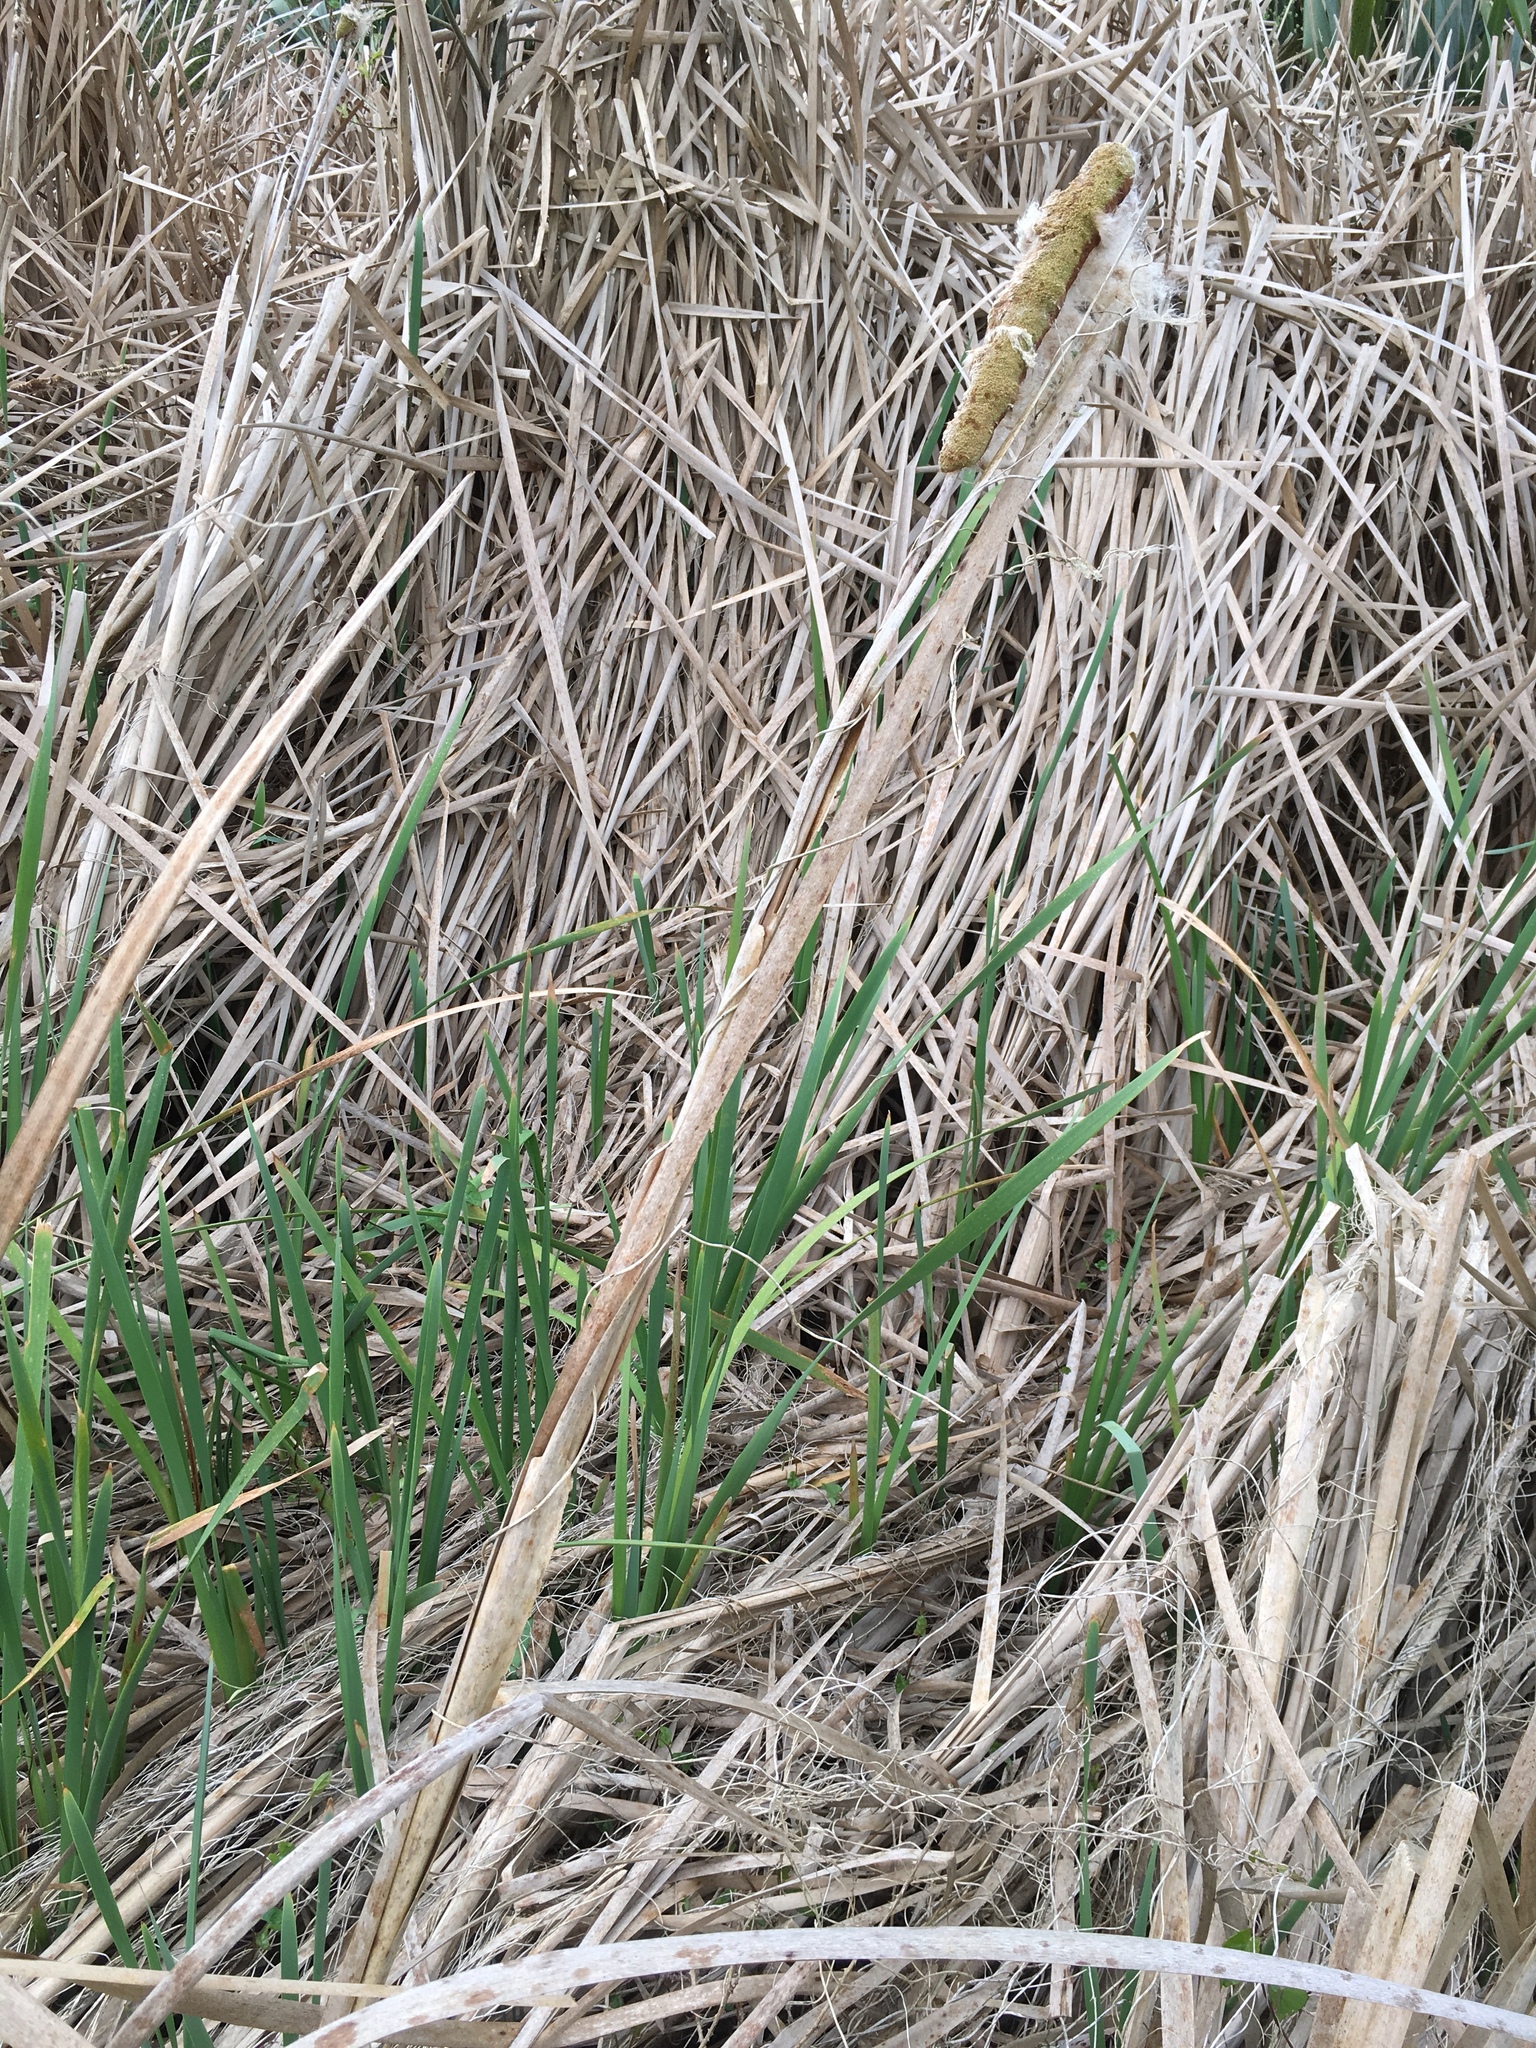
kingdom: Plantae
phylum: Tracheophyta
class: Liliopsida
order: Poales
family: Typhaceae
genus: Typha
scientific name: Typha orientalis
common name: Bullrush
